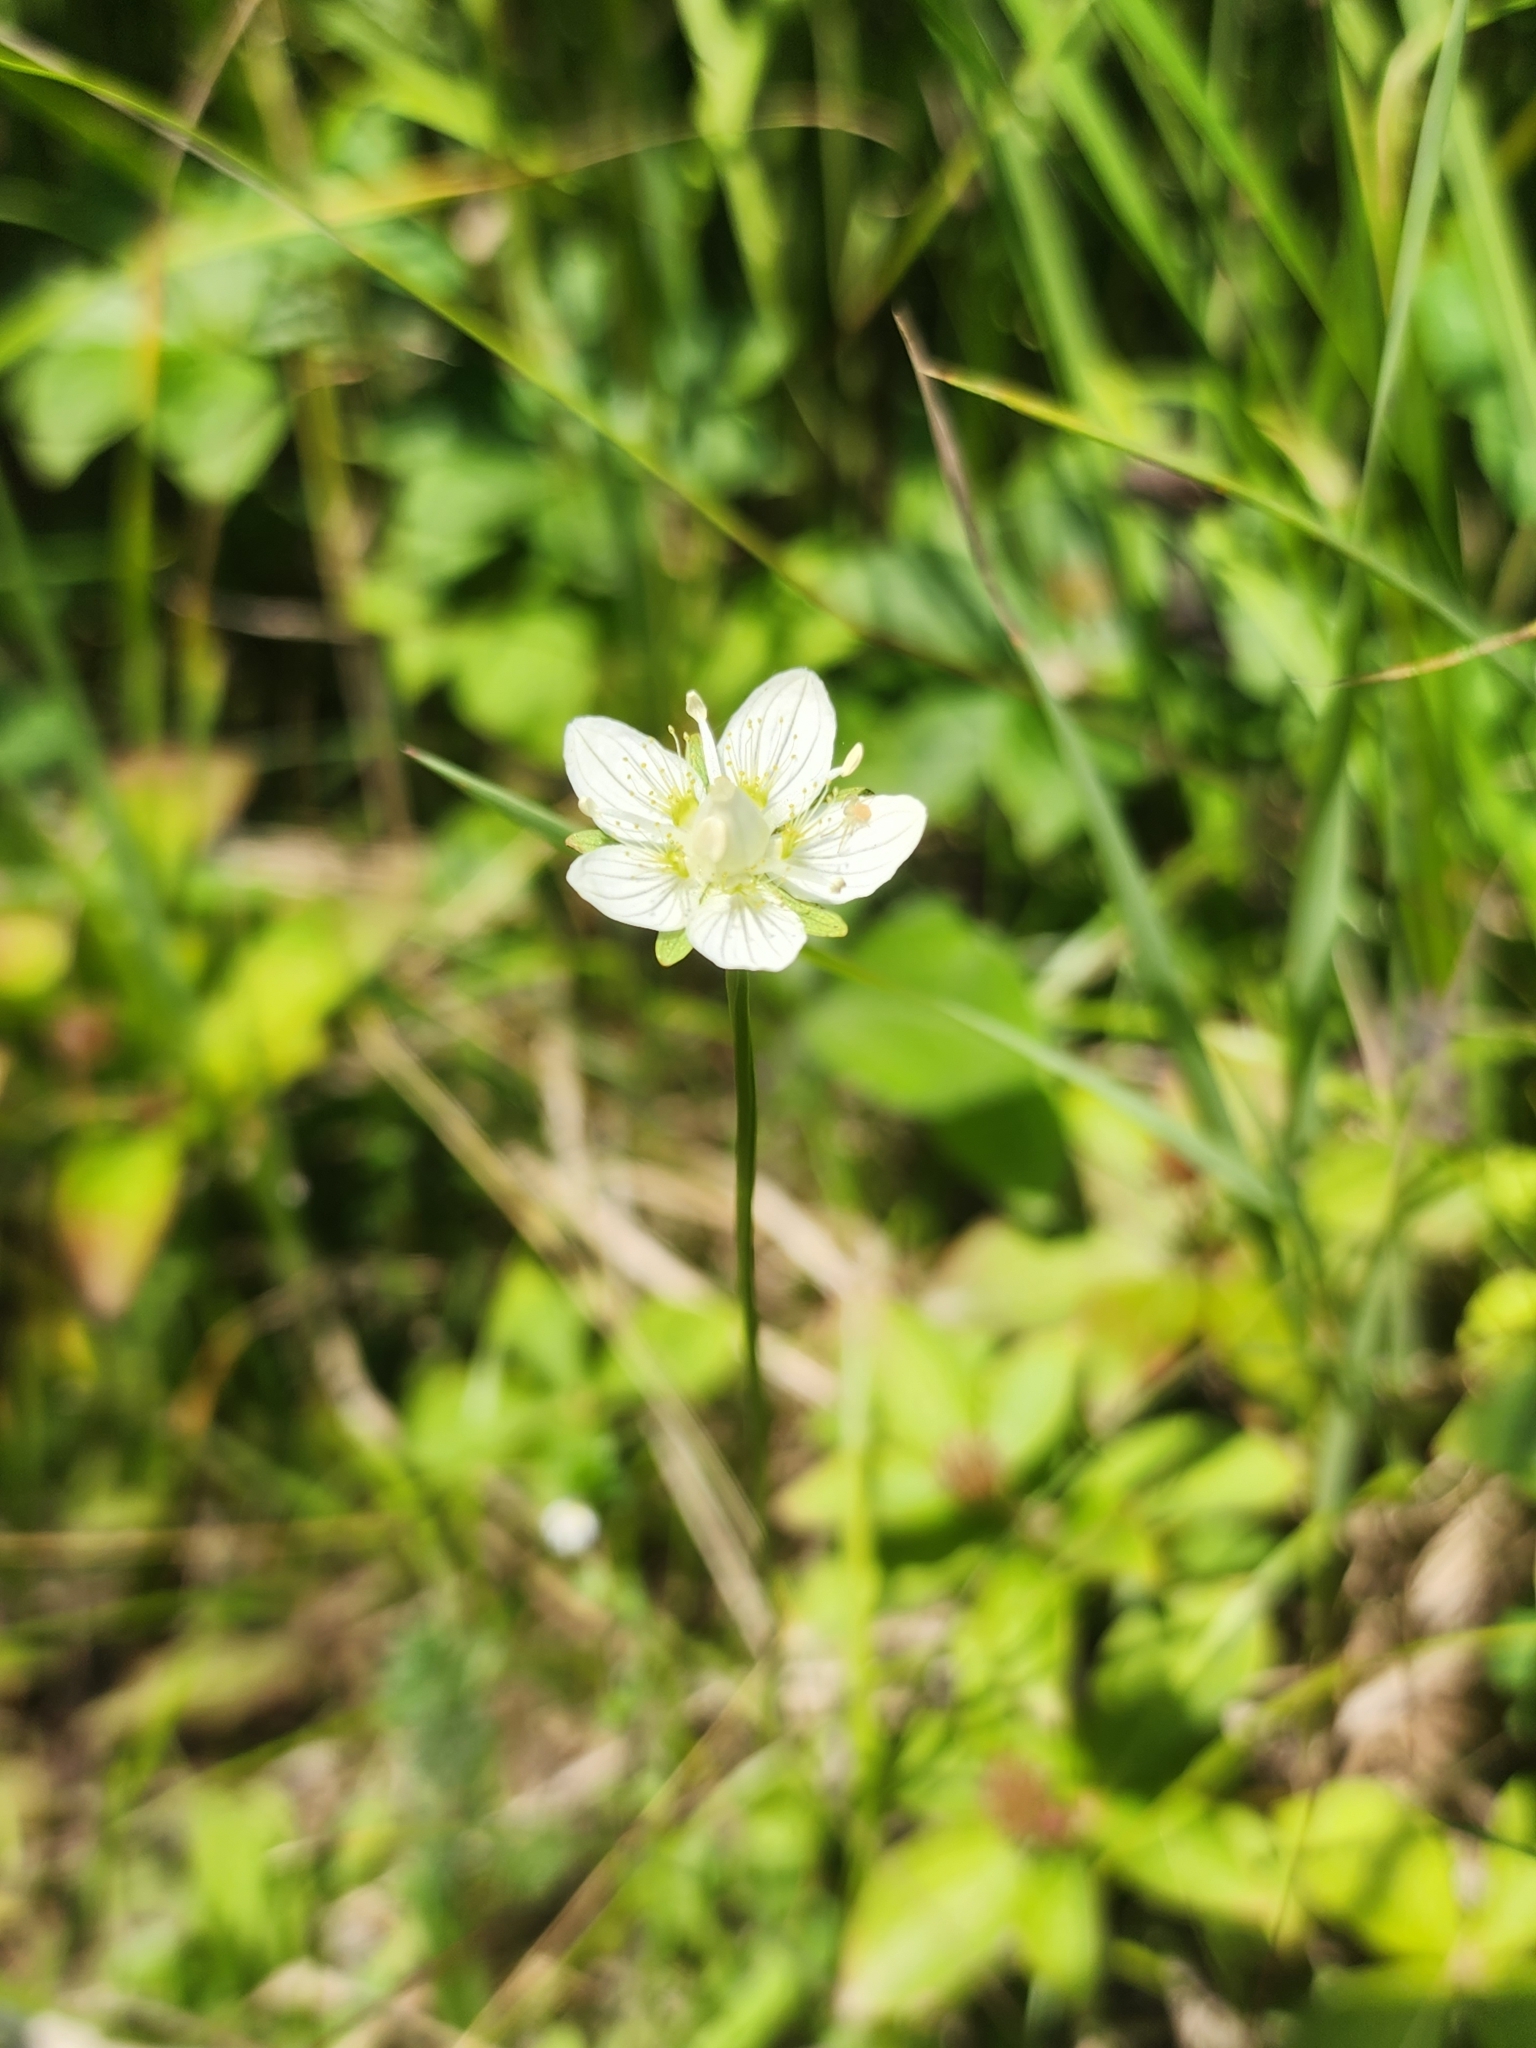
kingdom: Plantae
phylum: Tracheophyta
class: Magnoliopsida
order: Celastrales
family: Parnassiaceae
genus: Parnassia
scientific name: Parnassia palustris
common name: Grass-of-parnassus
